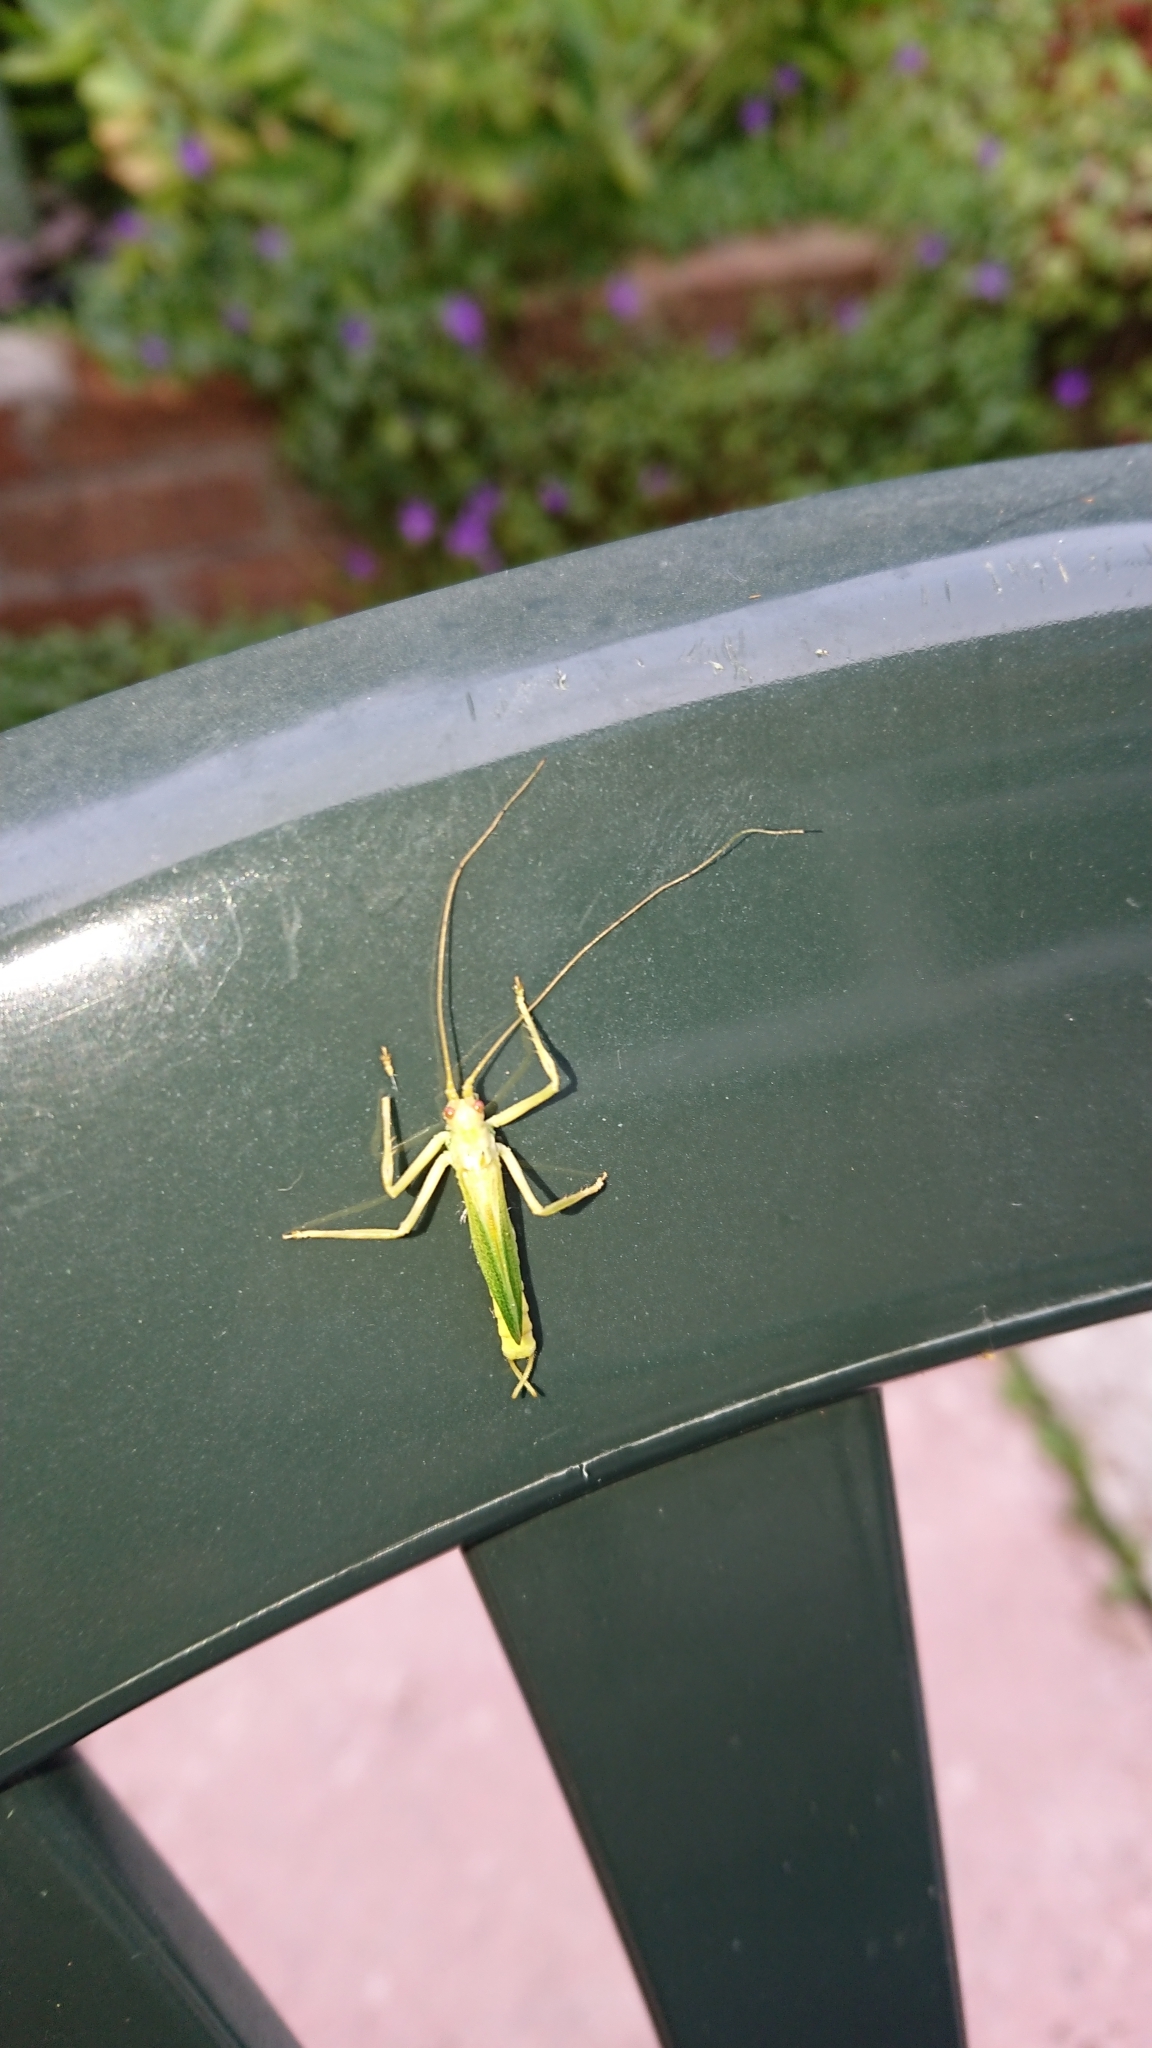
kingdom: Animalia
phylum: Arthropoda
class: Insecta
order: Orthoptera
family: Tettigoniidae
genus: Meconema
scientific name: Meconema thalassinum
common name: Oak bush-cricket
